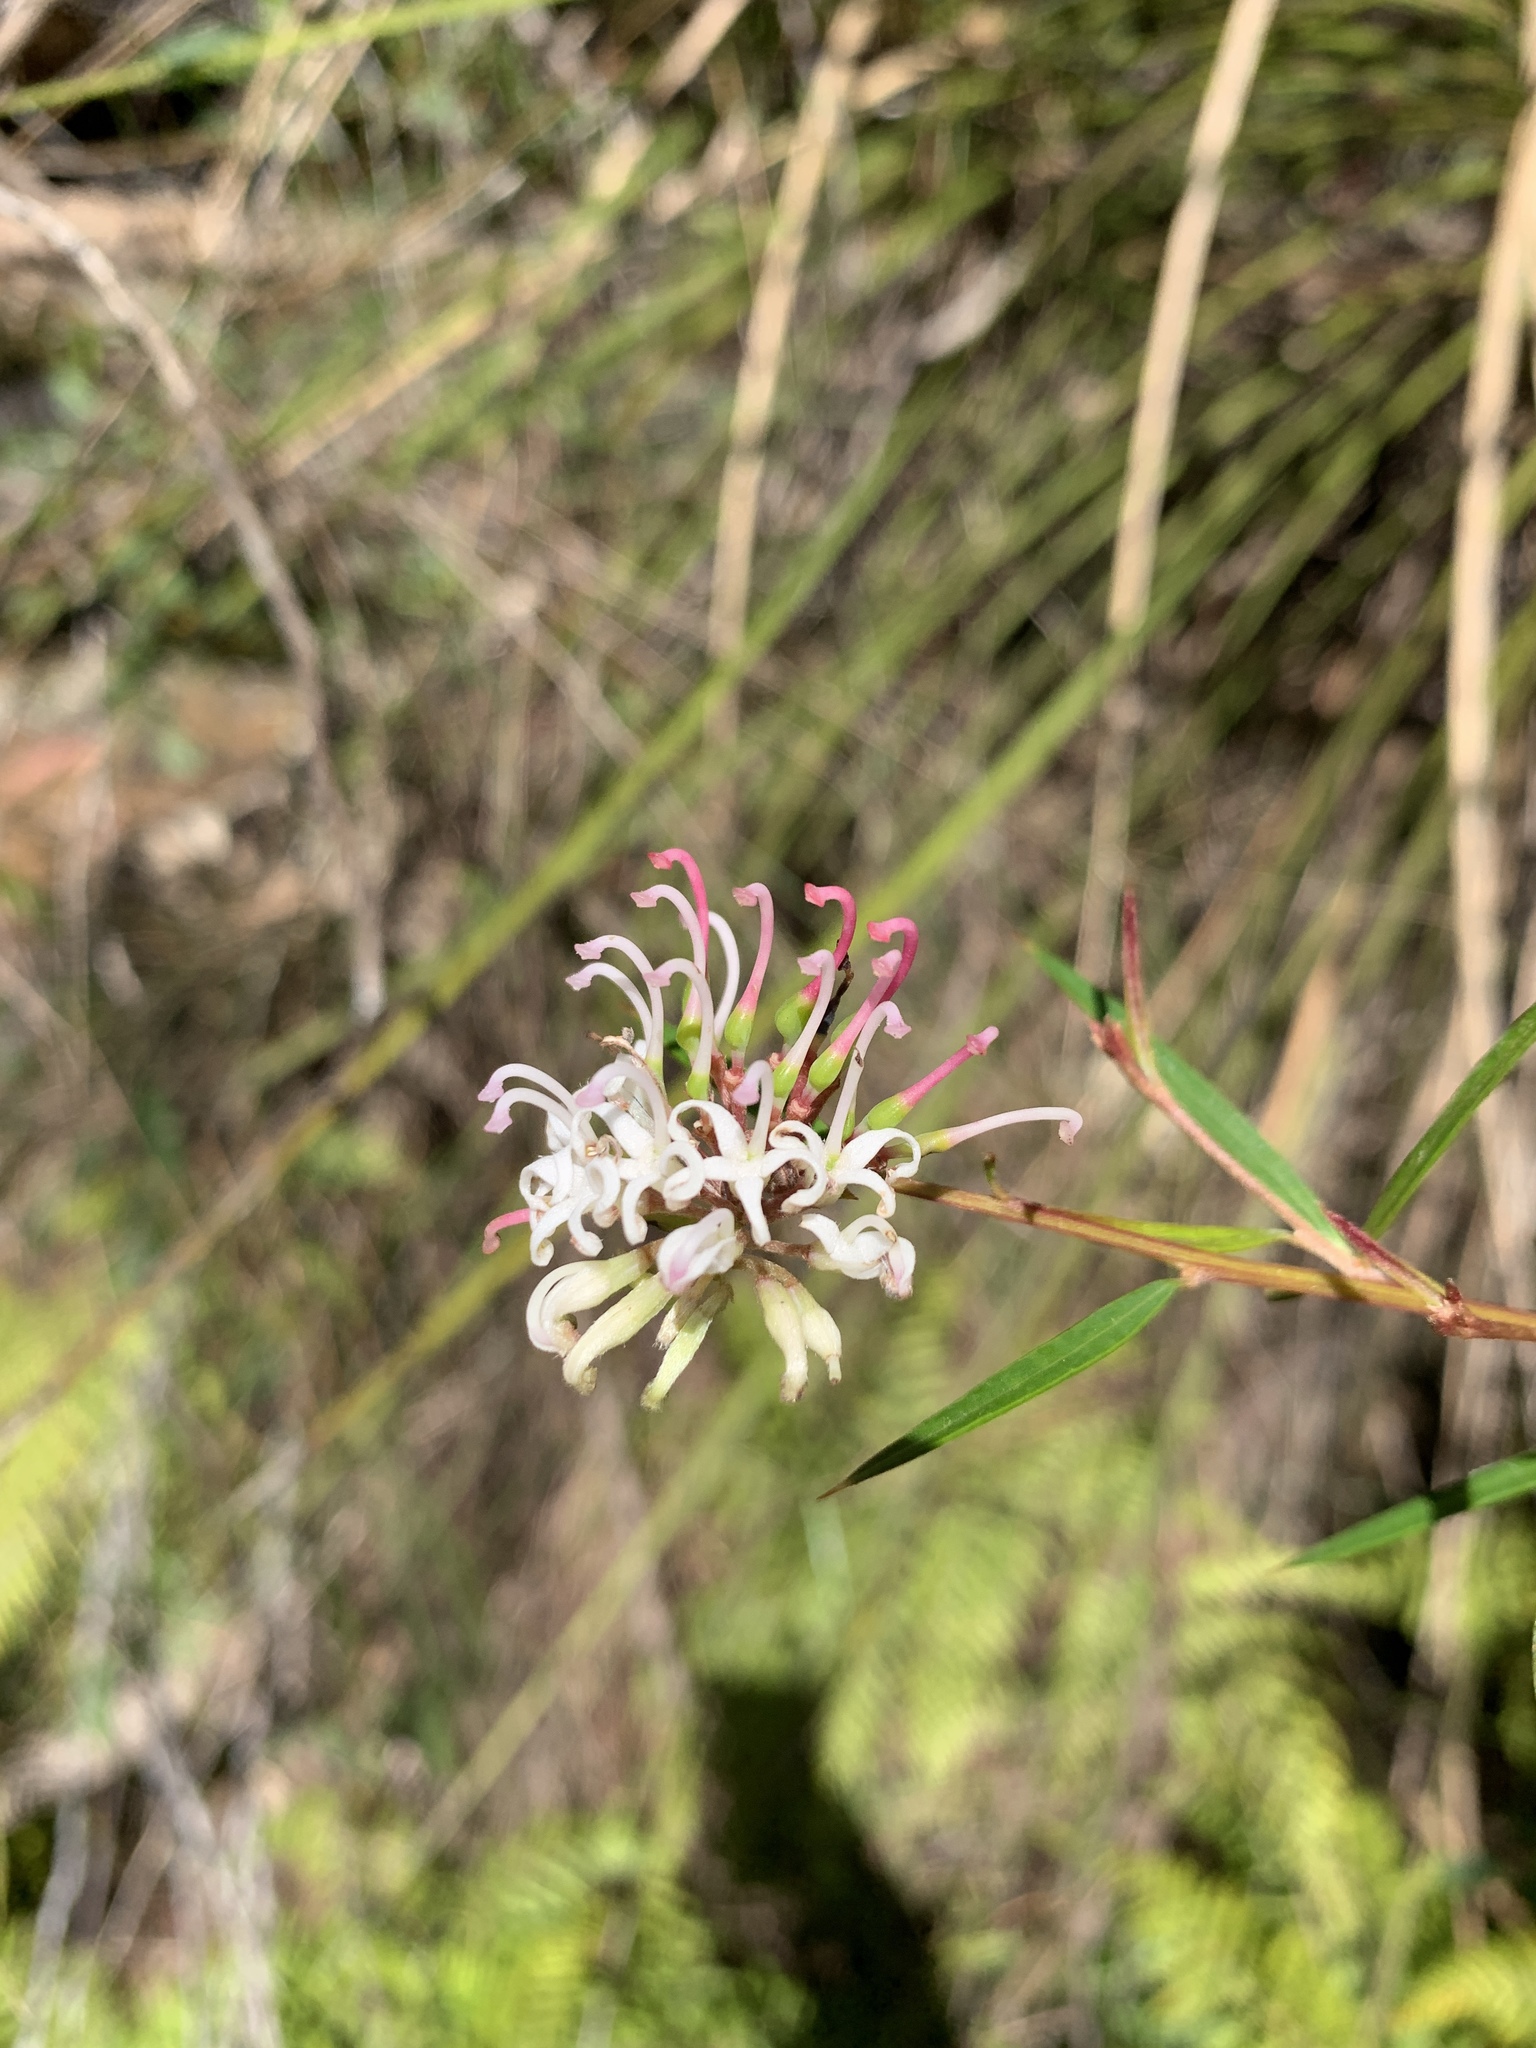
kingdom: Plantae
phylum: Tracheophyta
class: Magnoliopsida
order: Proteales
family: Proteaceae
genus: Grevillea
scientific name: Grevillea linearifolia
